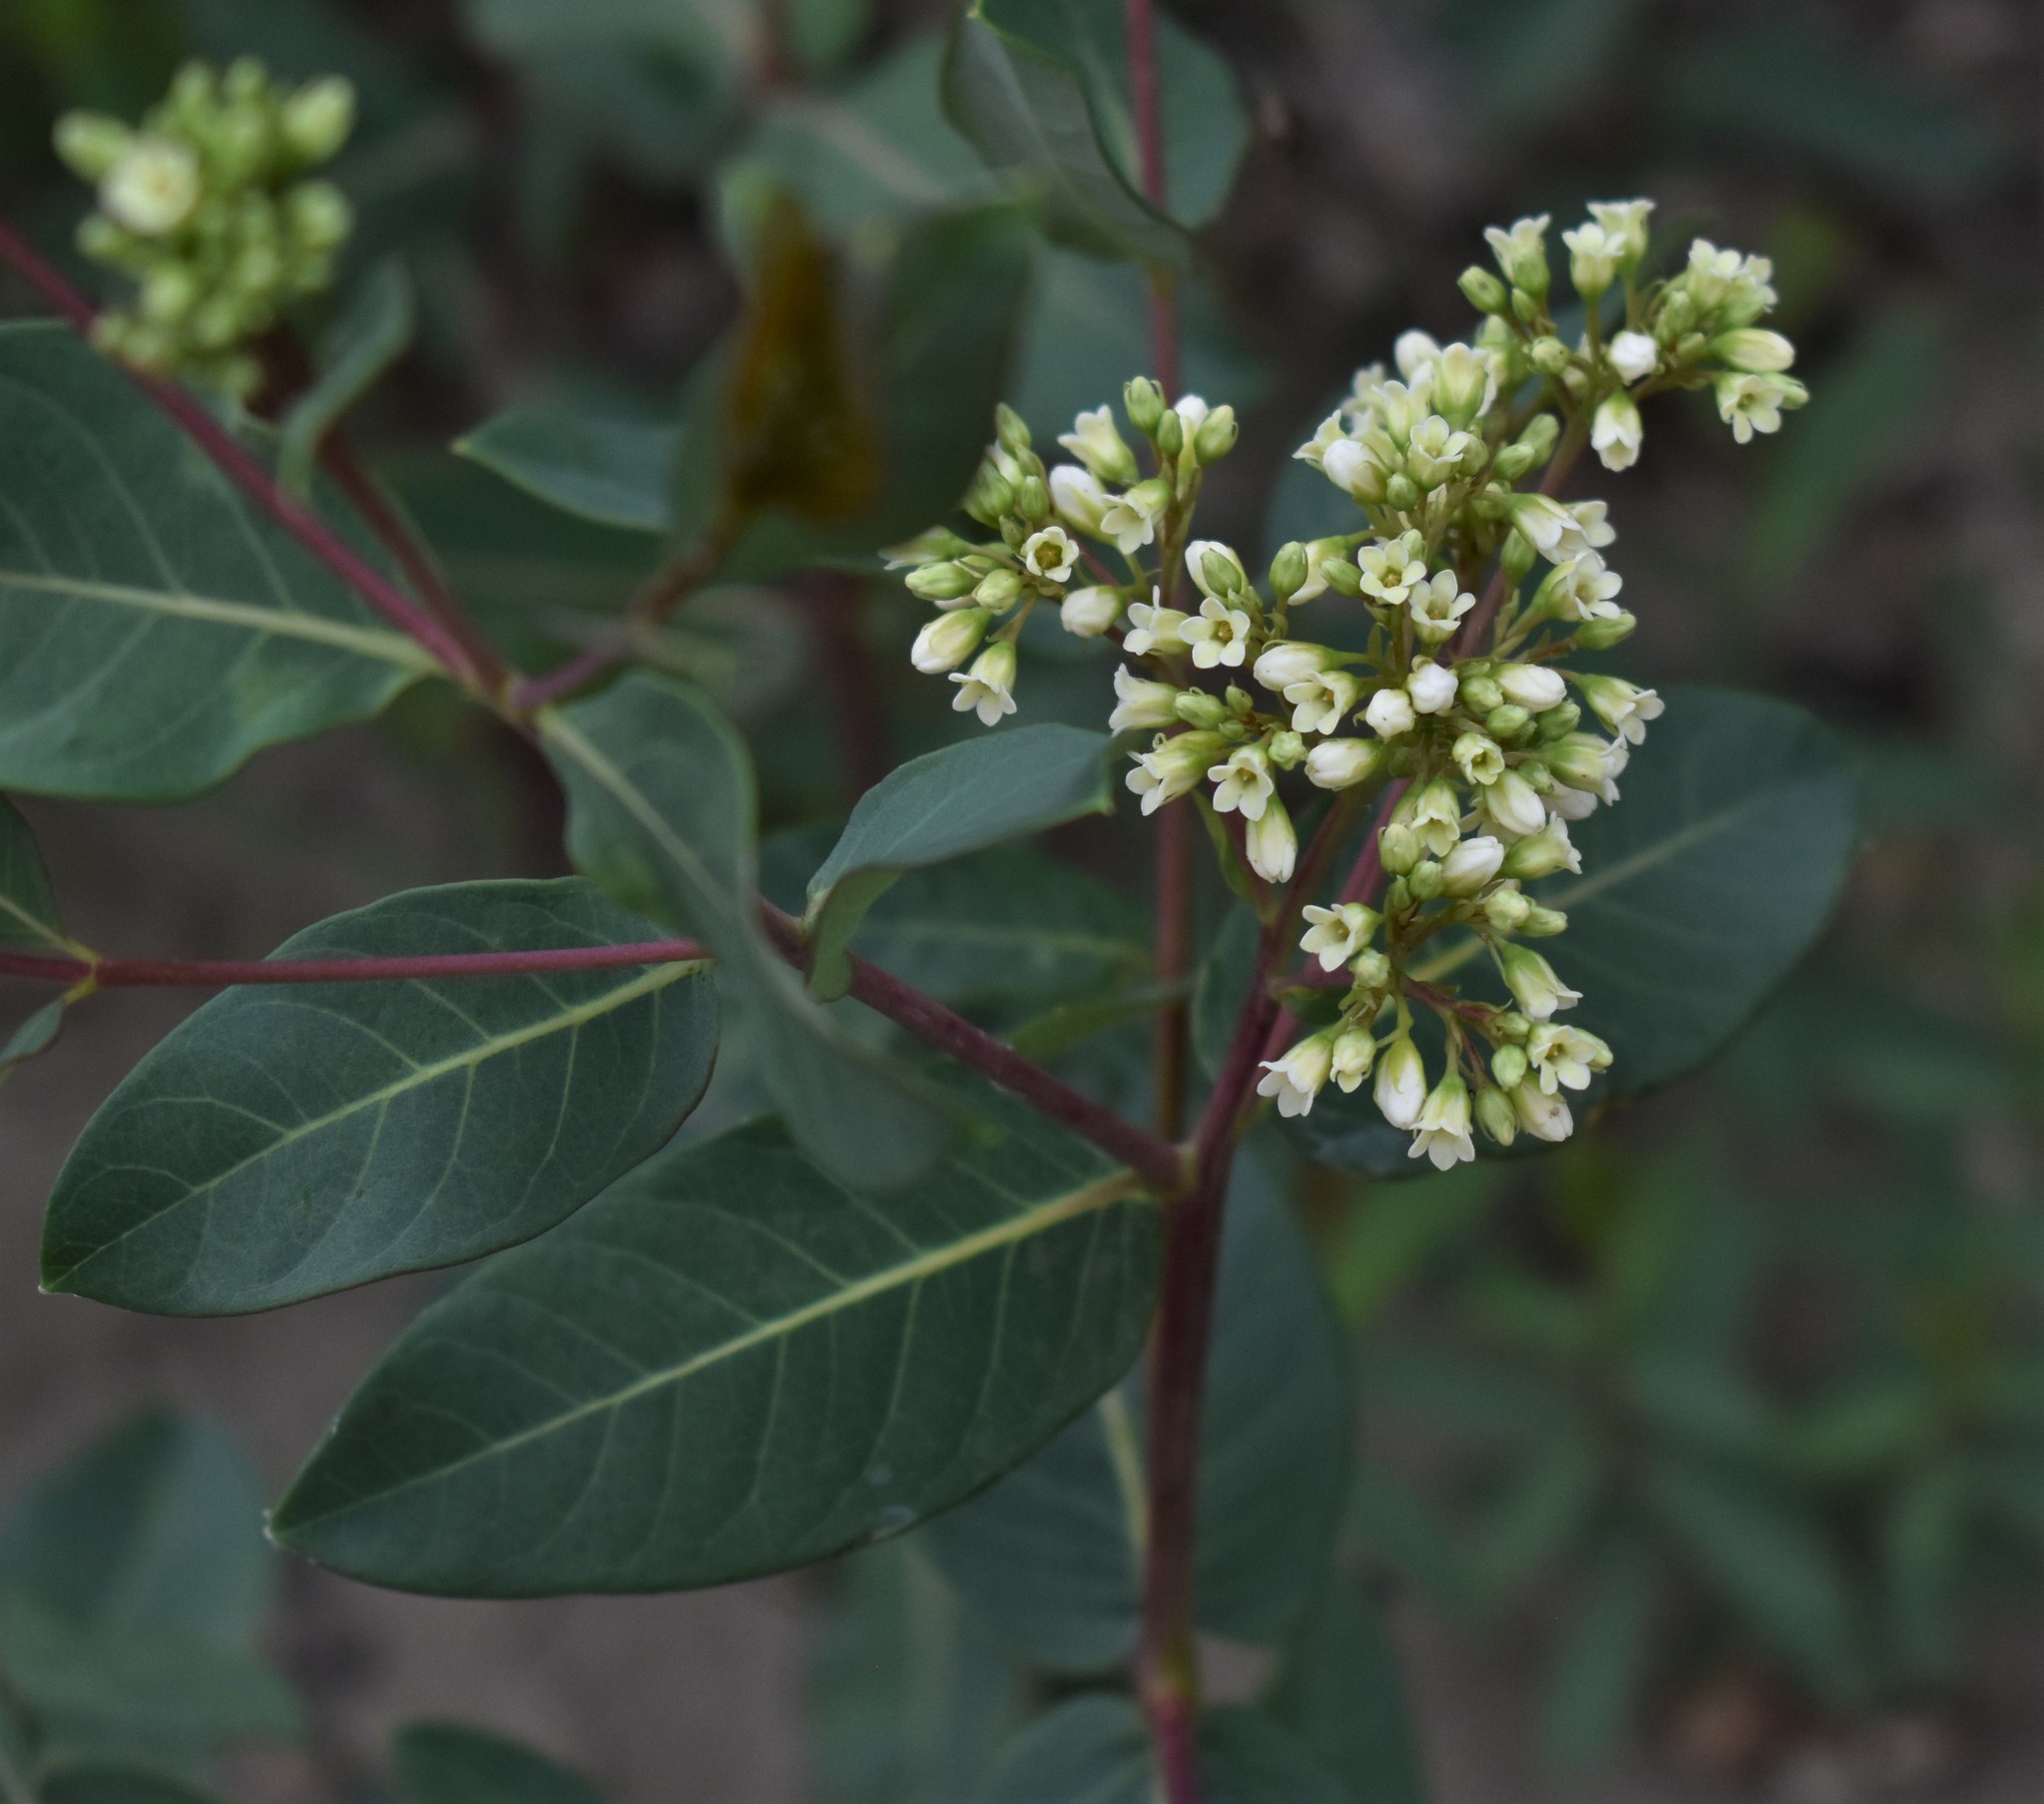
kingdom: Plantae
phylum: Tracheophyta
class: Magnoliopsida
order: Gentianales
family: Apocynaceae
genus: Apocynum
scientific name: Apocynum cannabinum
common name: Hemp dogbane
